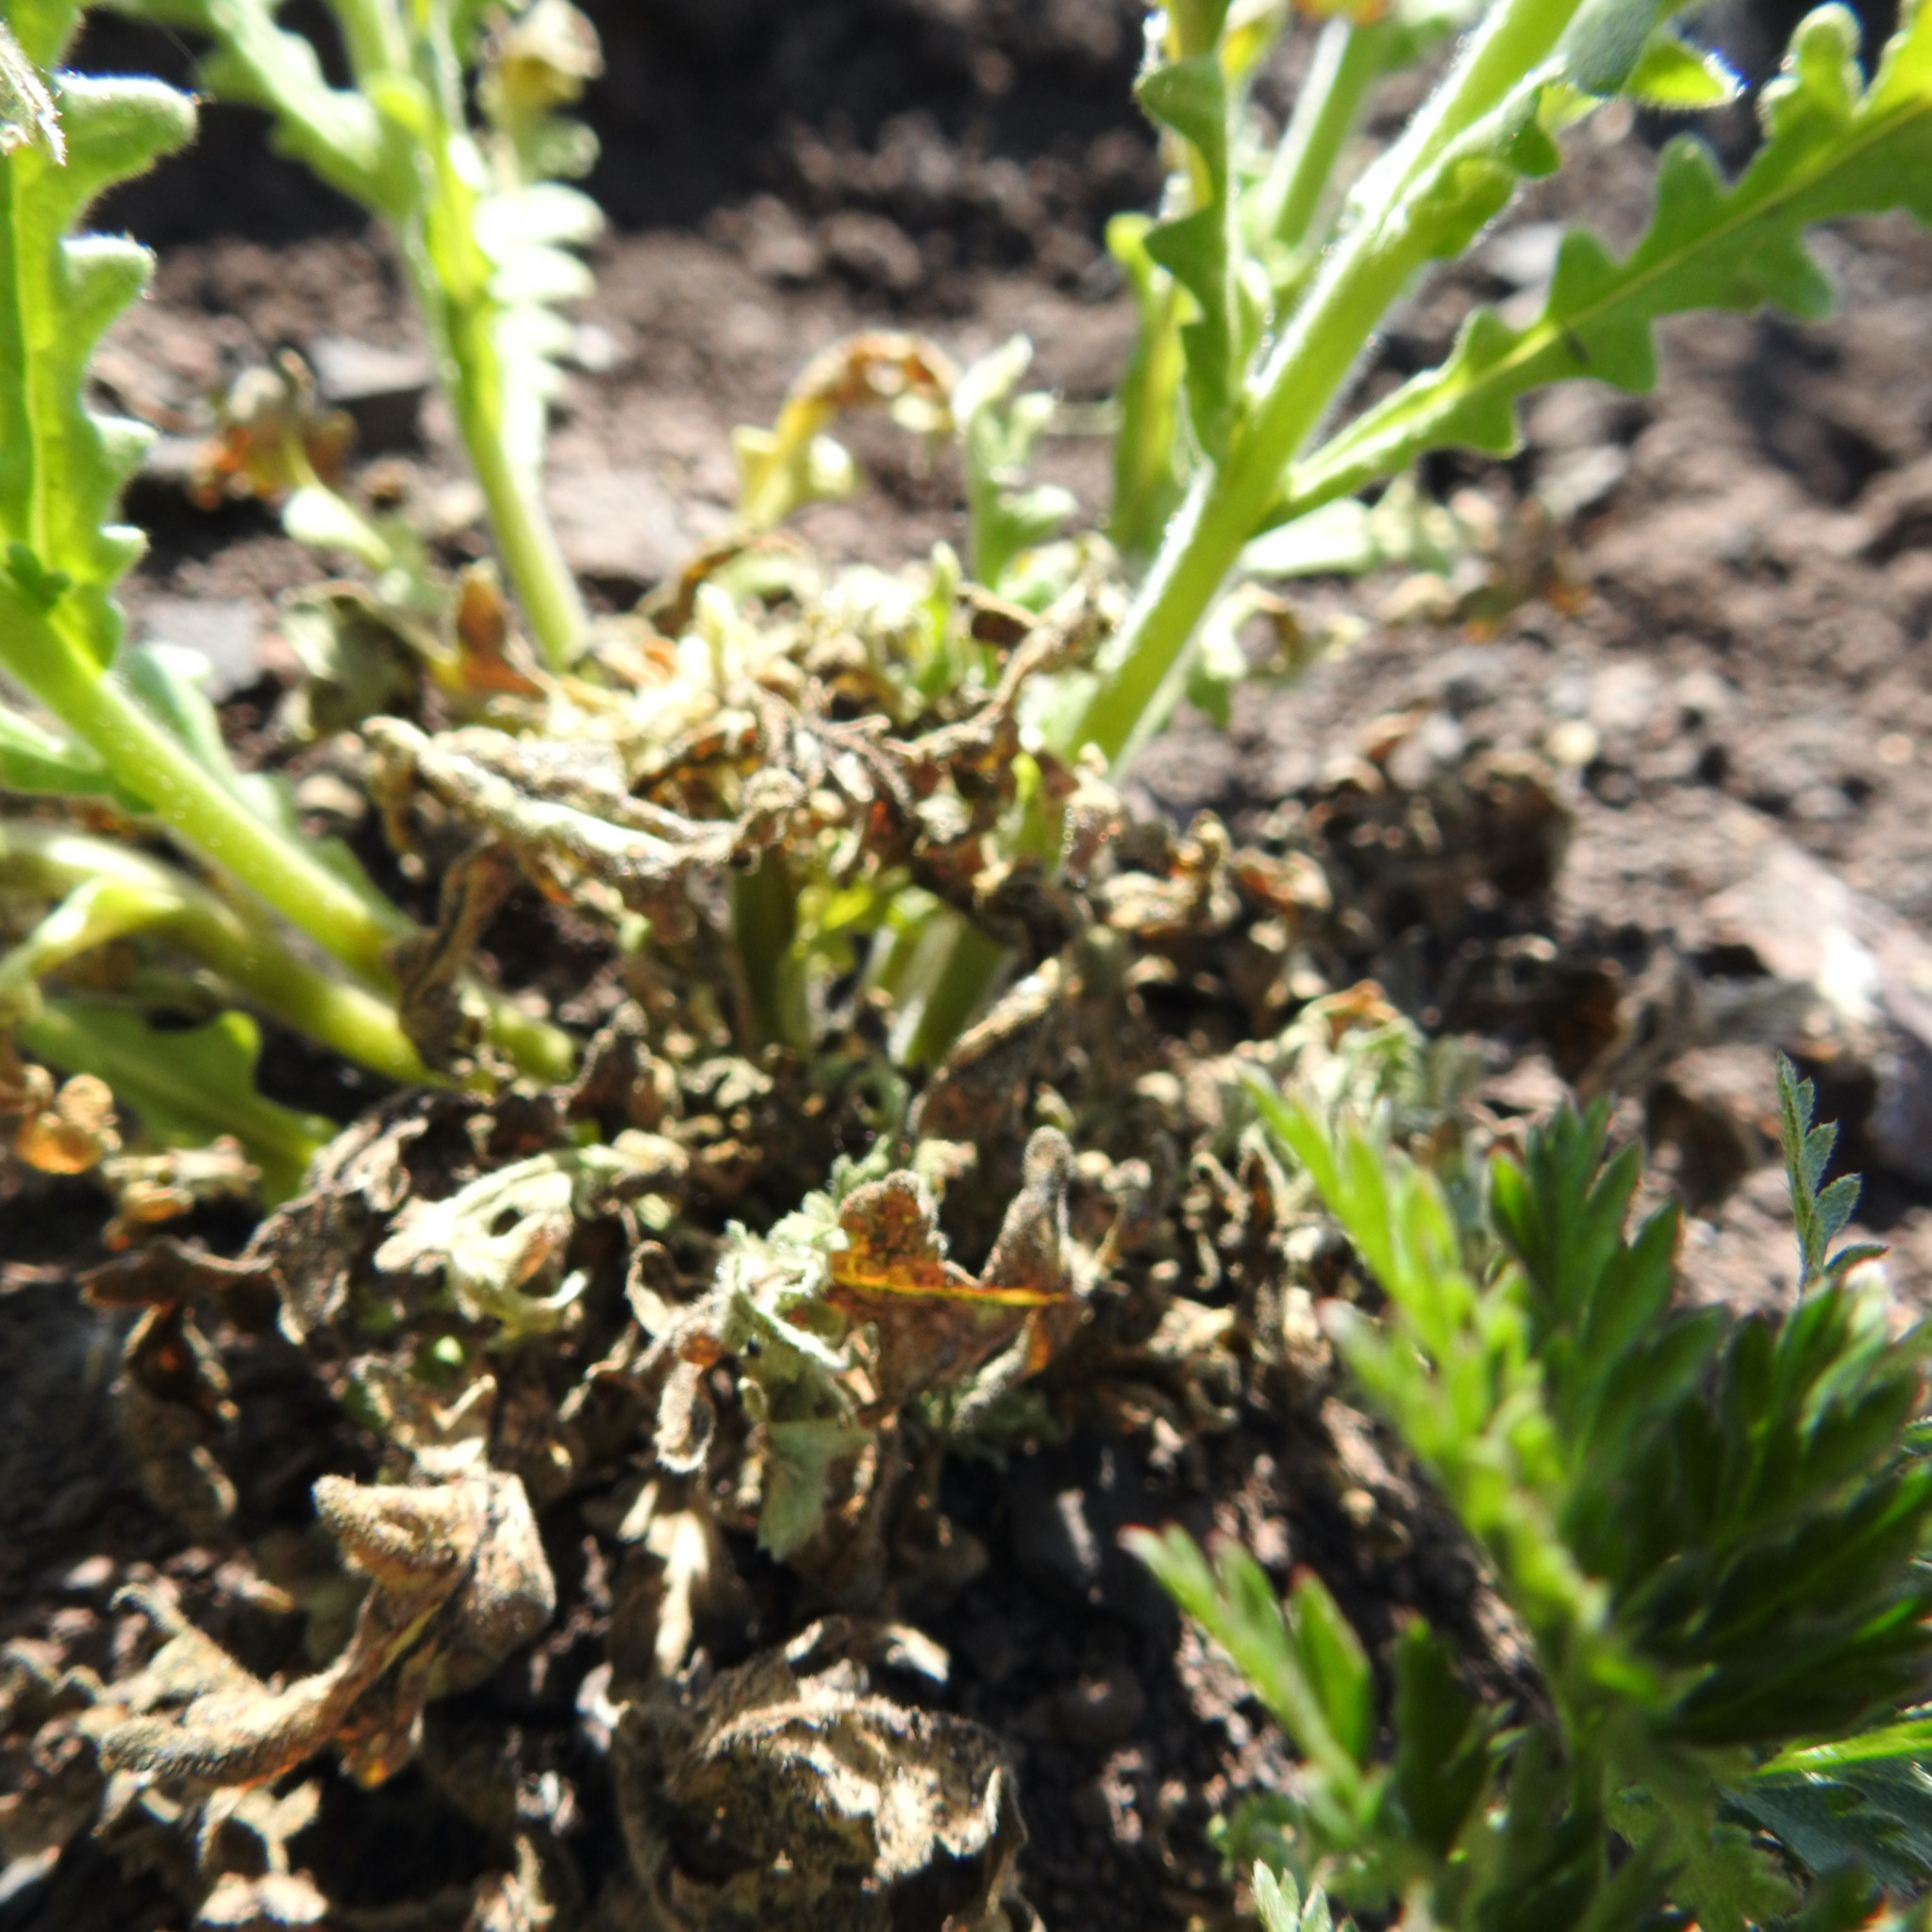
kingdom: Plantae
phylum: Tracheophyta
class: Magnoliopsida
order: Boraginales
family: Hydrophyllaceae
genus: Emmenanthe
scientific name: Emmenanthe penduliflora
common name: Whispering-bells
